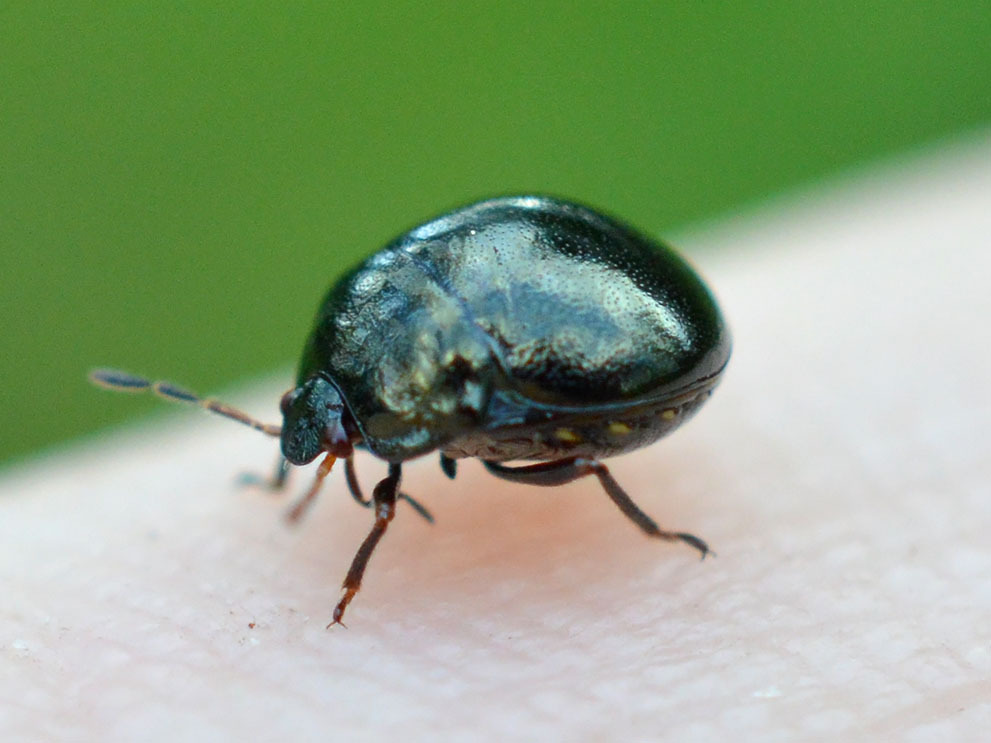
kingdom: Animalia
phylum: Arthropoda
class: Insecta
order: Hemiptera
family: Plataspidae
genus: Coptosoma
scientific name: Coptosoma scutellatum
